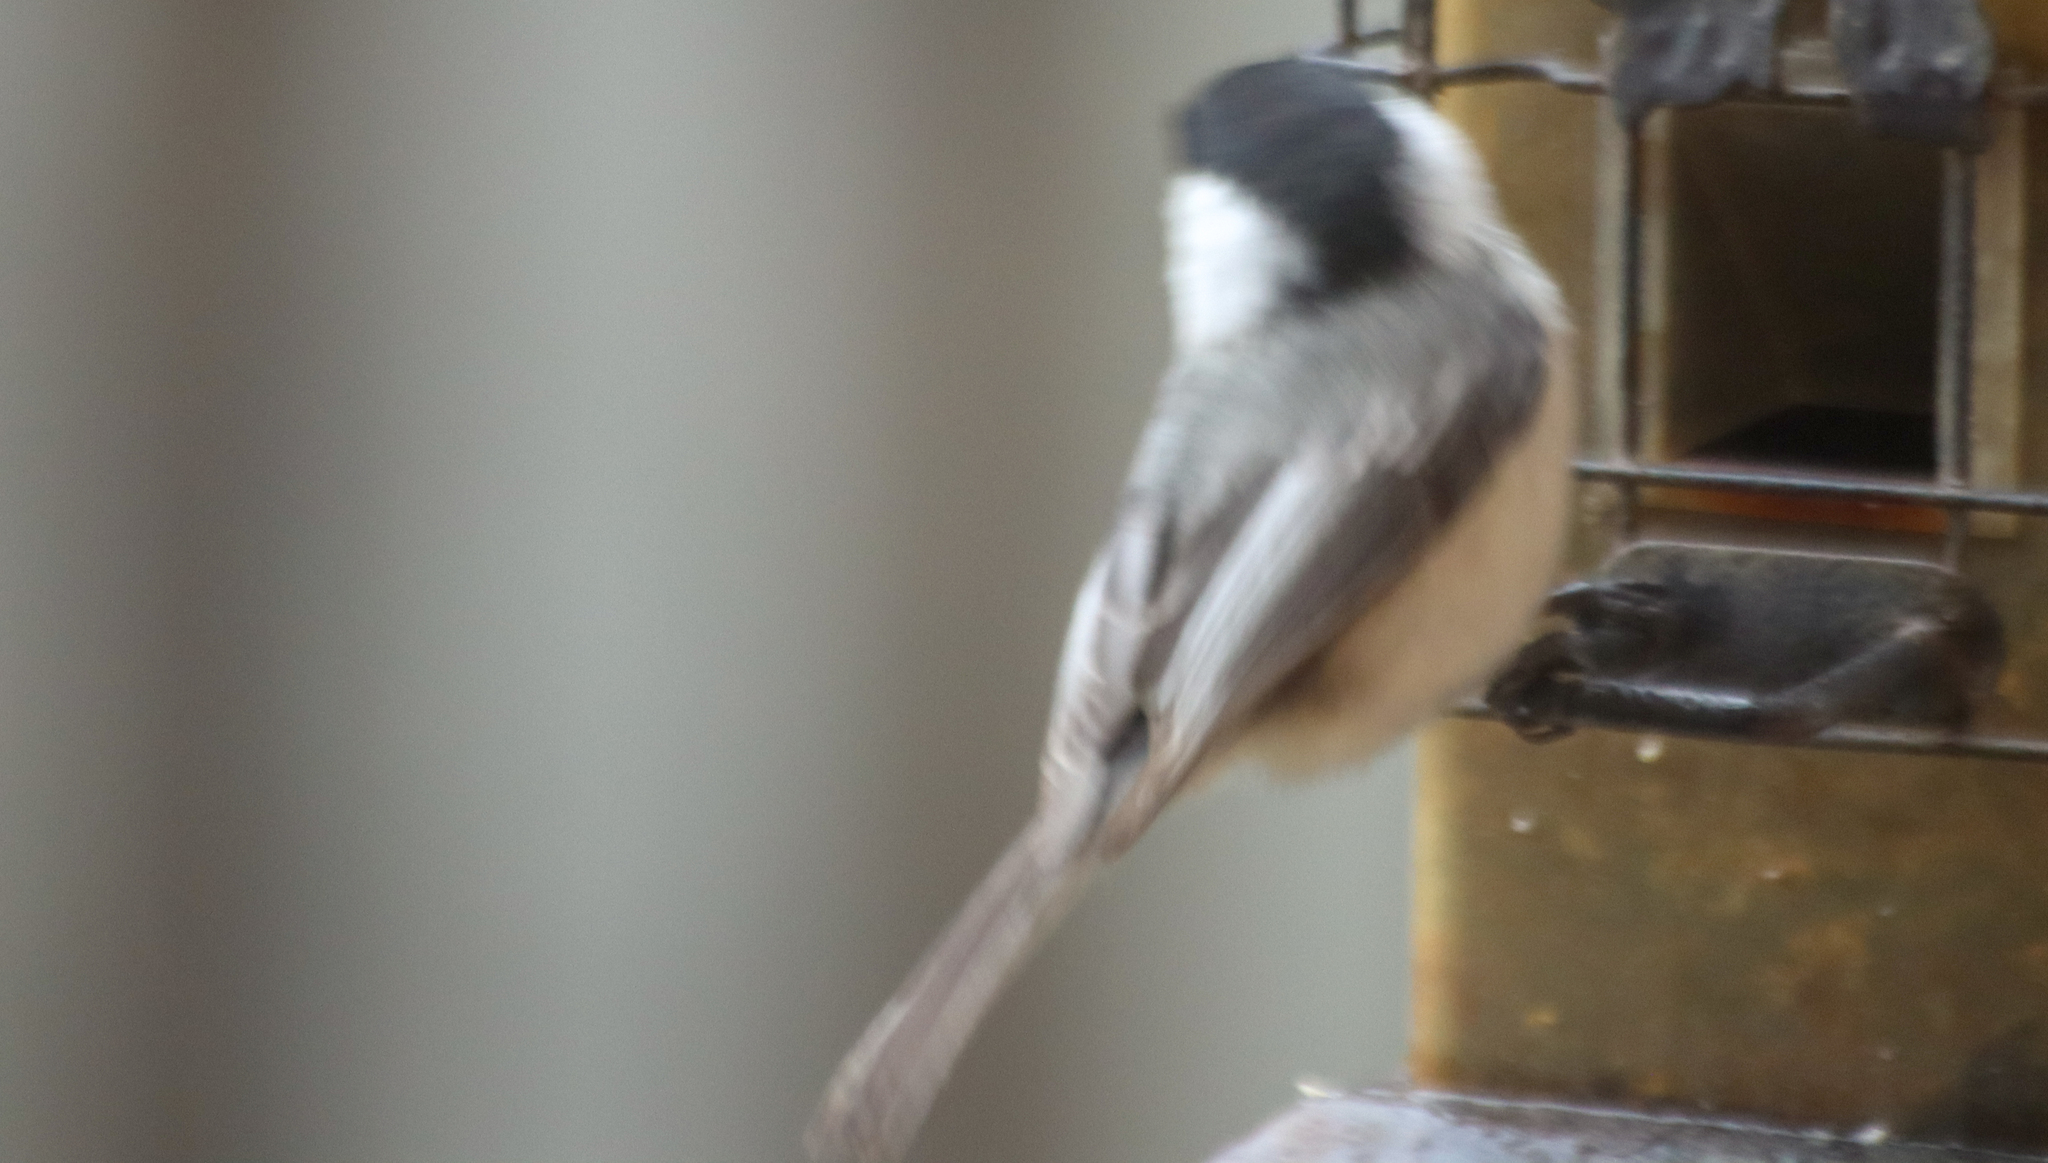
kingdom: Animalia
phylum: Chordata
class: Aves
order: Passeriformes
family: Paridae
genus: Poecile
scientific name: Poecile atricapillus
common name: Black-capped chickadee
